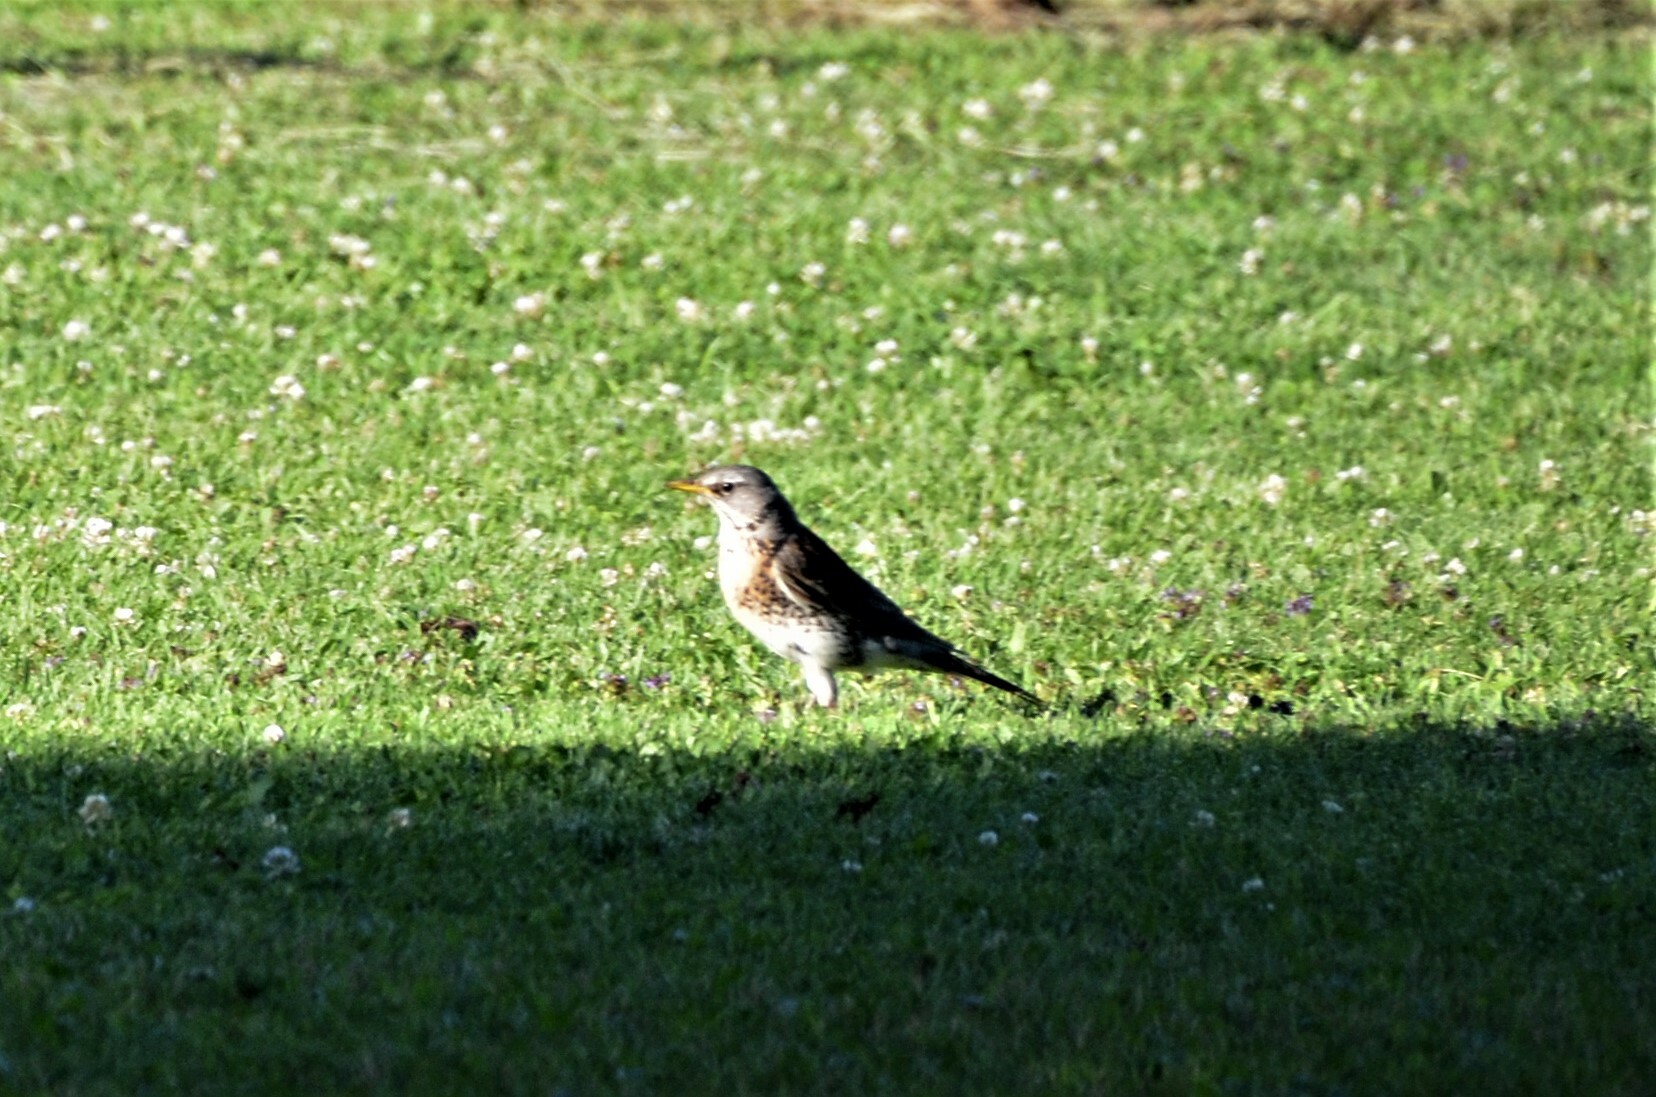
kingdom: Animalia
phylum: Chordata
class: Aves
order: Passeriformes
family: Turdidae
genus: Turdus
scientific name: Turdus pilaris
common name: Fieldfare
